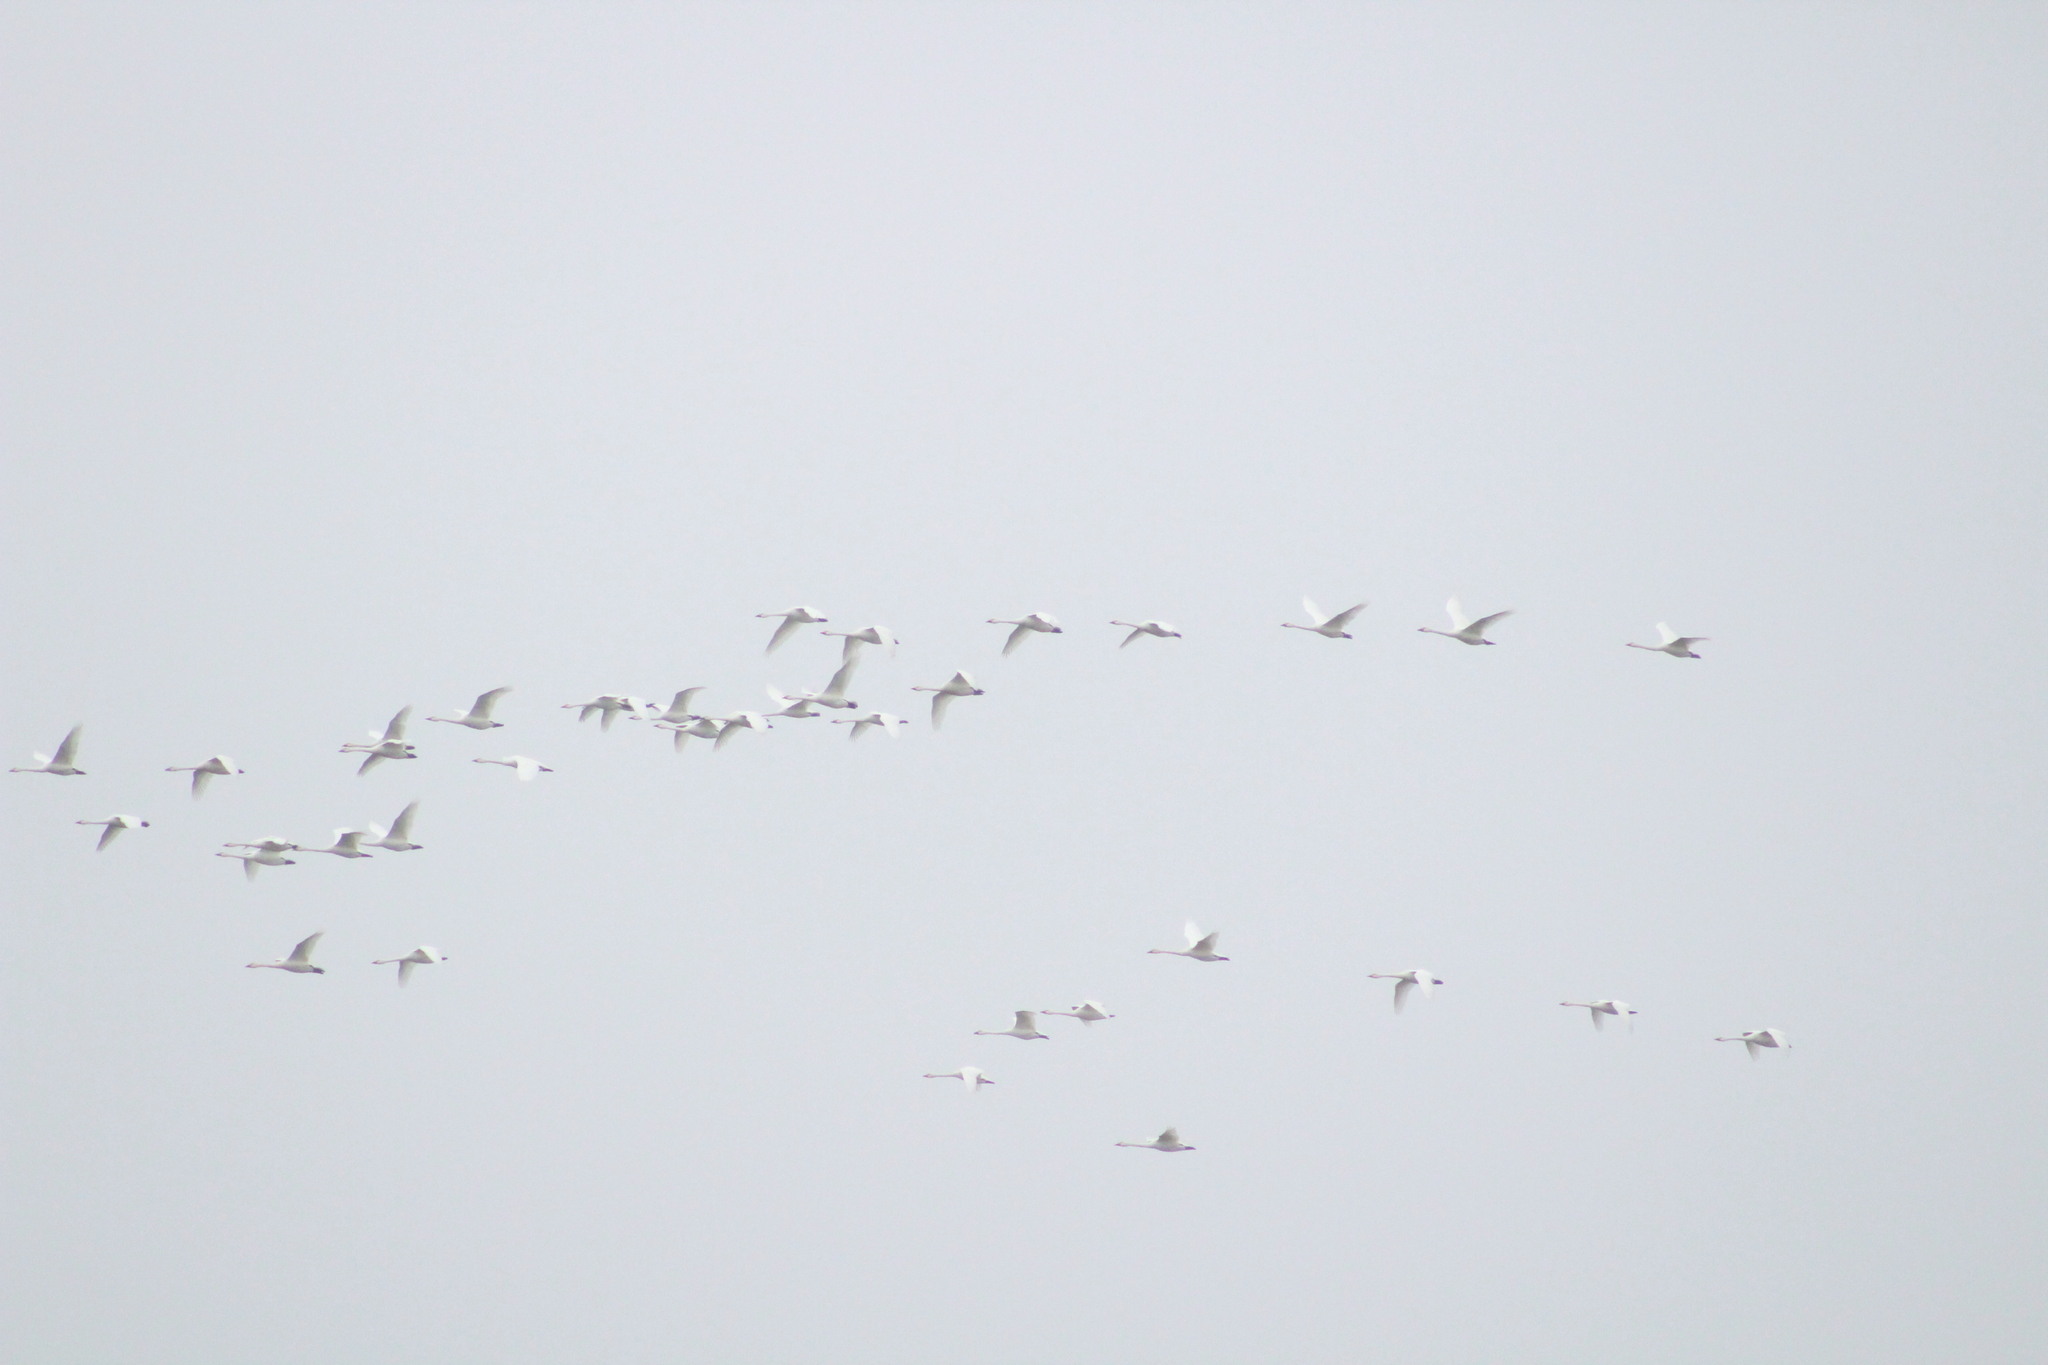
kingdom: Animalia
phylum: Chordata
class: Aves
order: Anseriformes
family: Anatidae
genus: Cygnus
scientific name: Cygnus cygnus
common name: Whooper swan
